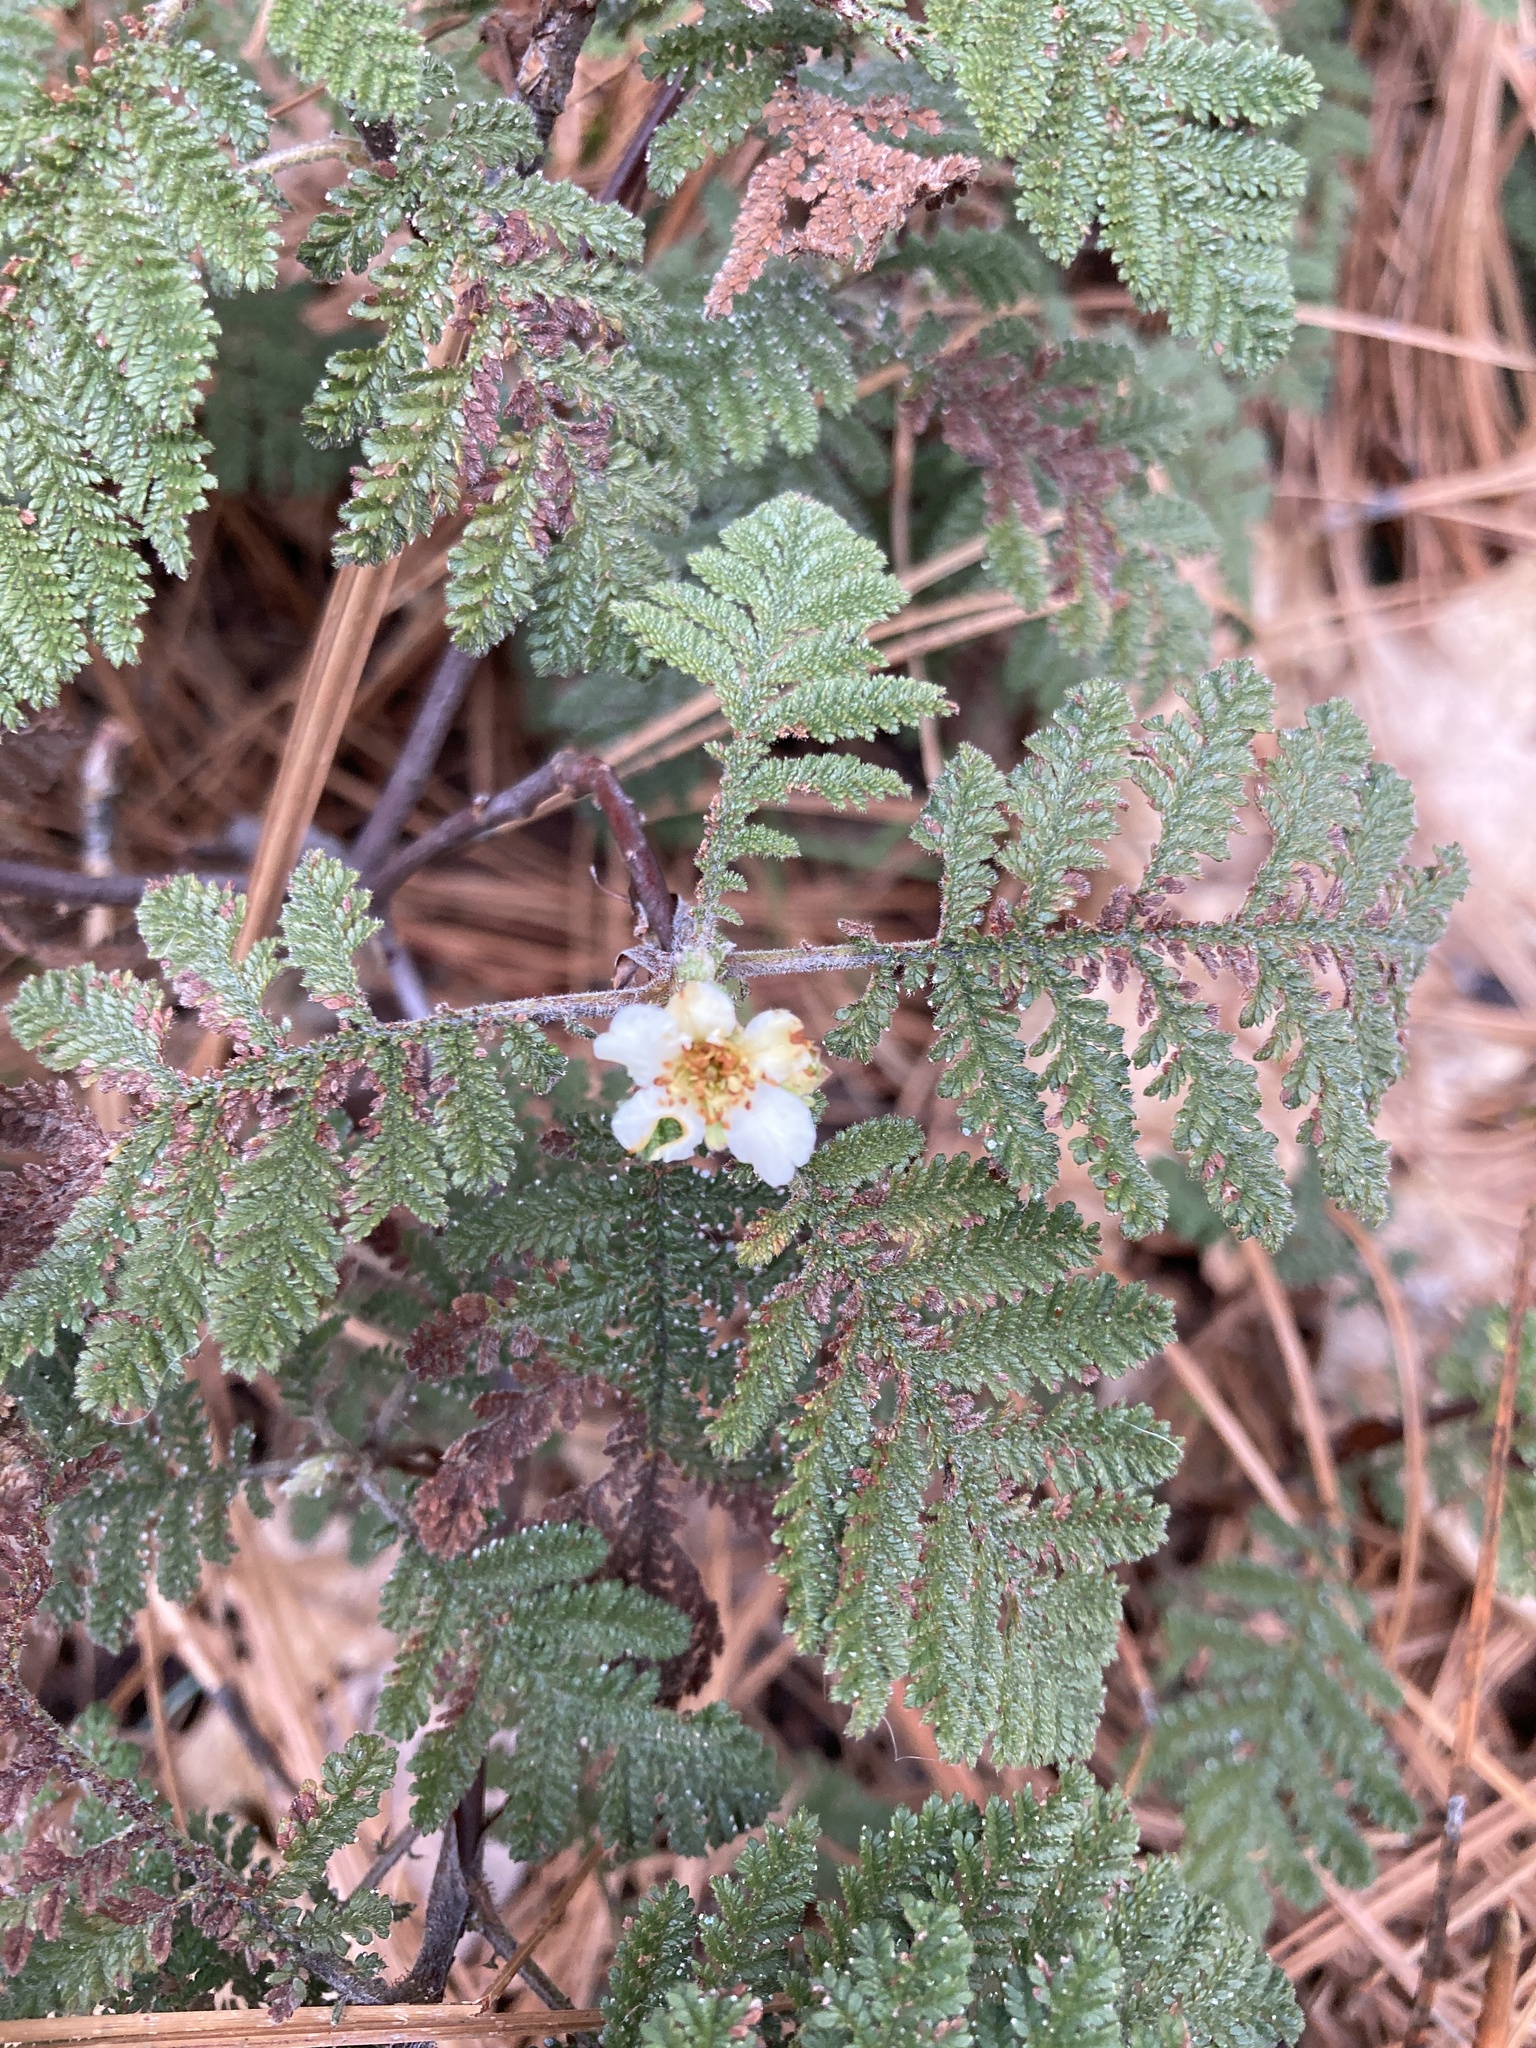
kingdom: Plantae
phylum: Tracheophyta
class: Magnoliopsida
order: Rosales
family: Rosaceae
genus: Chamaebatia
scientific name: Chamaebatia foliolosa
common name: Mountain misery
